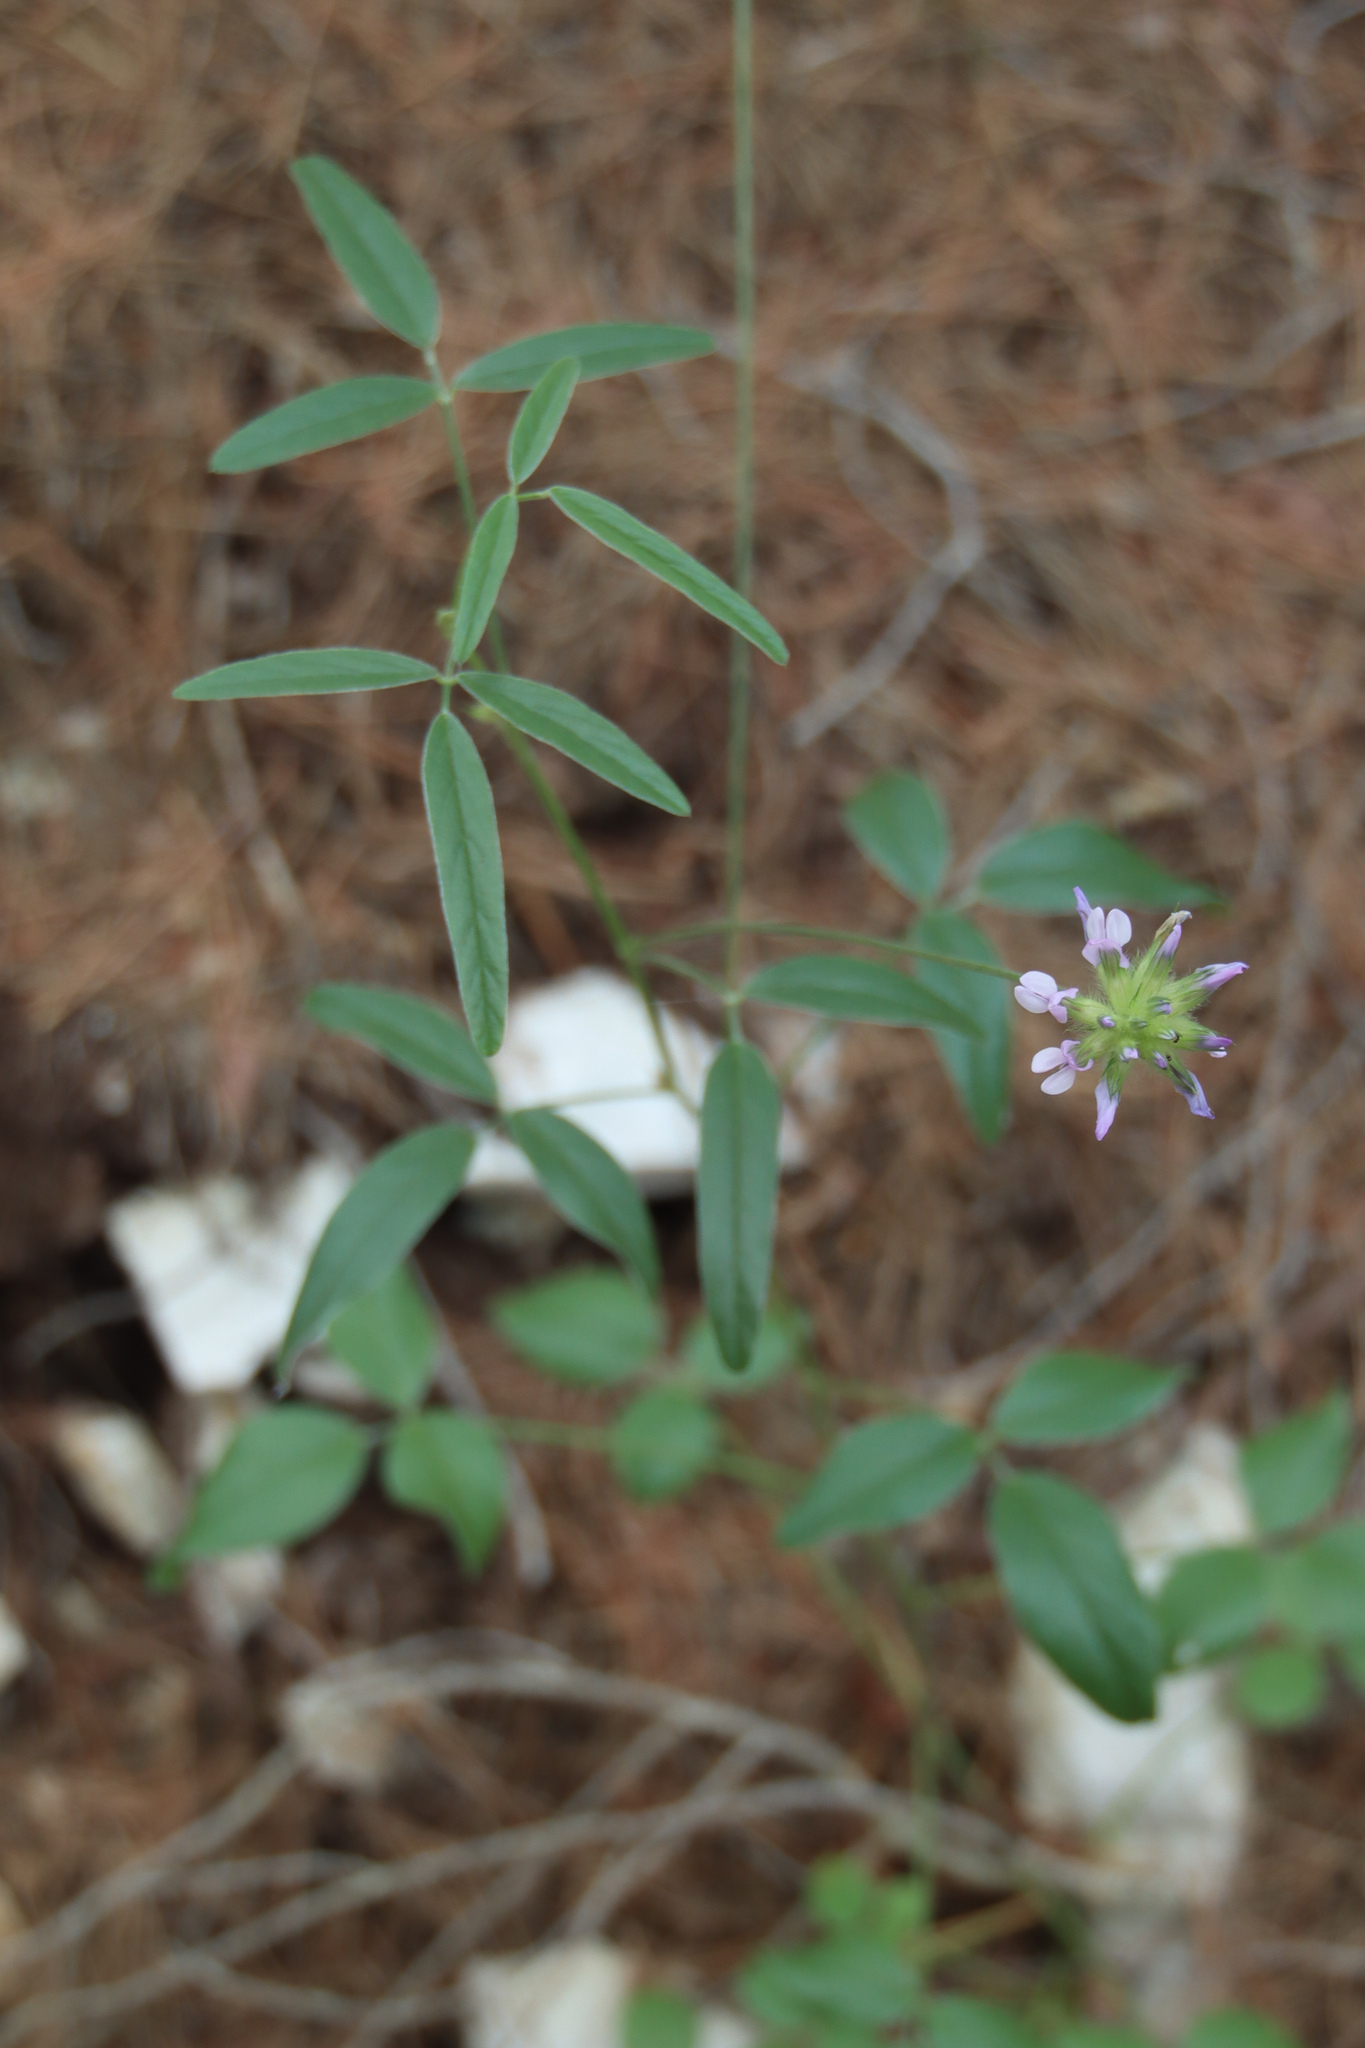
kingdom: Plantae
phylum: Tracheophyta
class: Magnoliopsida
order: Fabales
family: Fabaceae
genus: Bituminaria
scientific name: Bituminaria bituminosa
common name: Arabian pea
